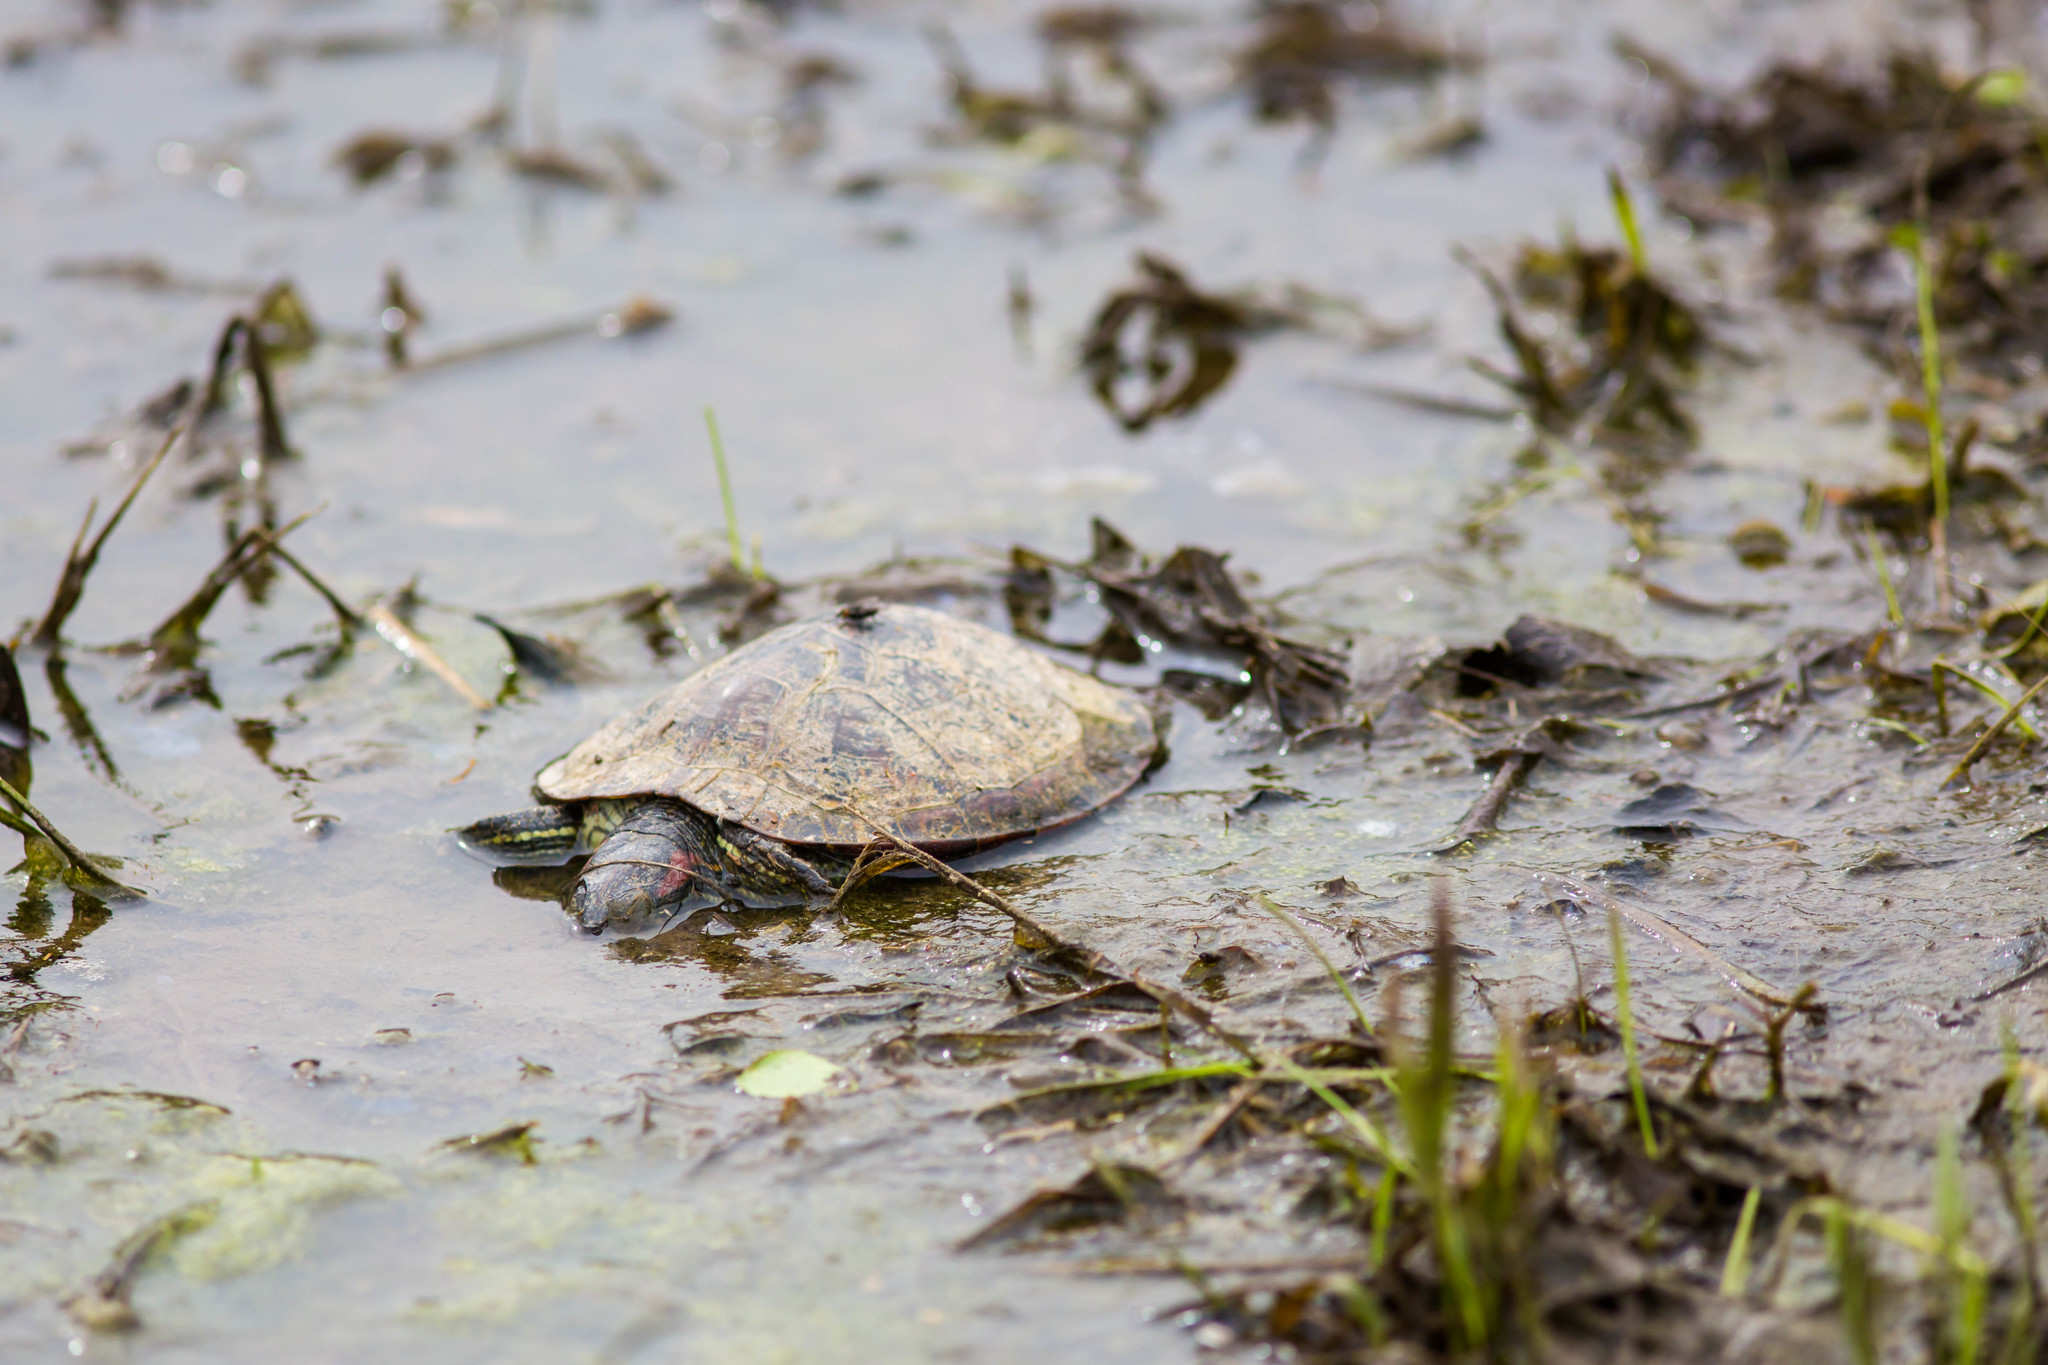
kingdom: Animalia
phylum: Chordata
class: Testudines
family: Emydidae
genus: Trachemys
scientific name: Trachemys scripta
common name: Slider
